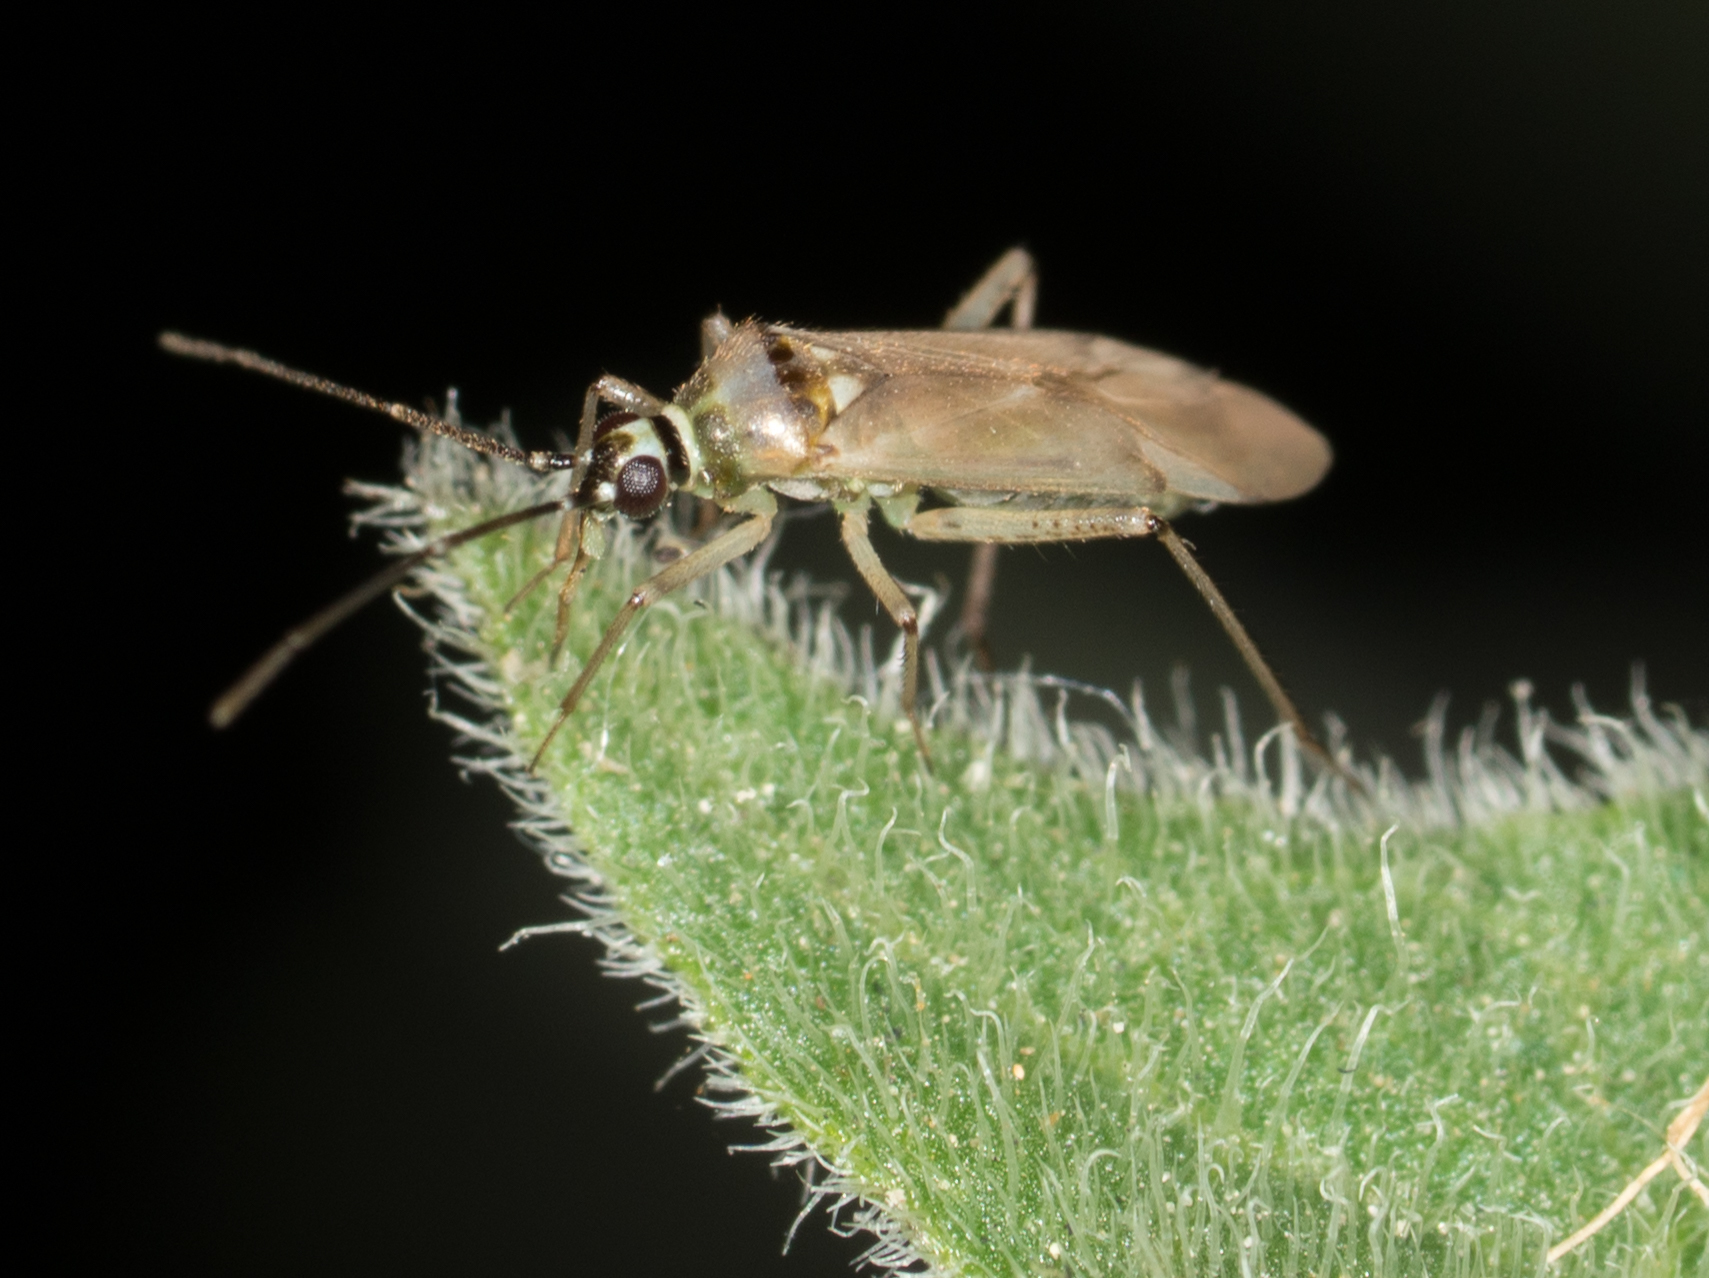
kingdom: Animalia
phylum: Arthropoda
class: Insecta
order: Hemiptera
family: Miridae
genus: Engytatus
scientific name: Engytatus modestus
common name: Tomato bug
